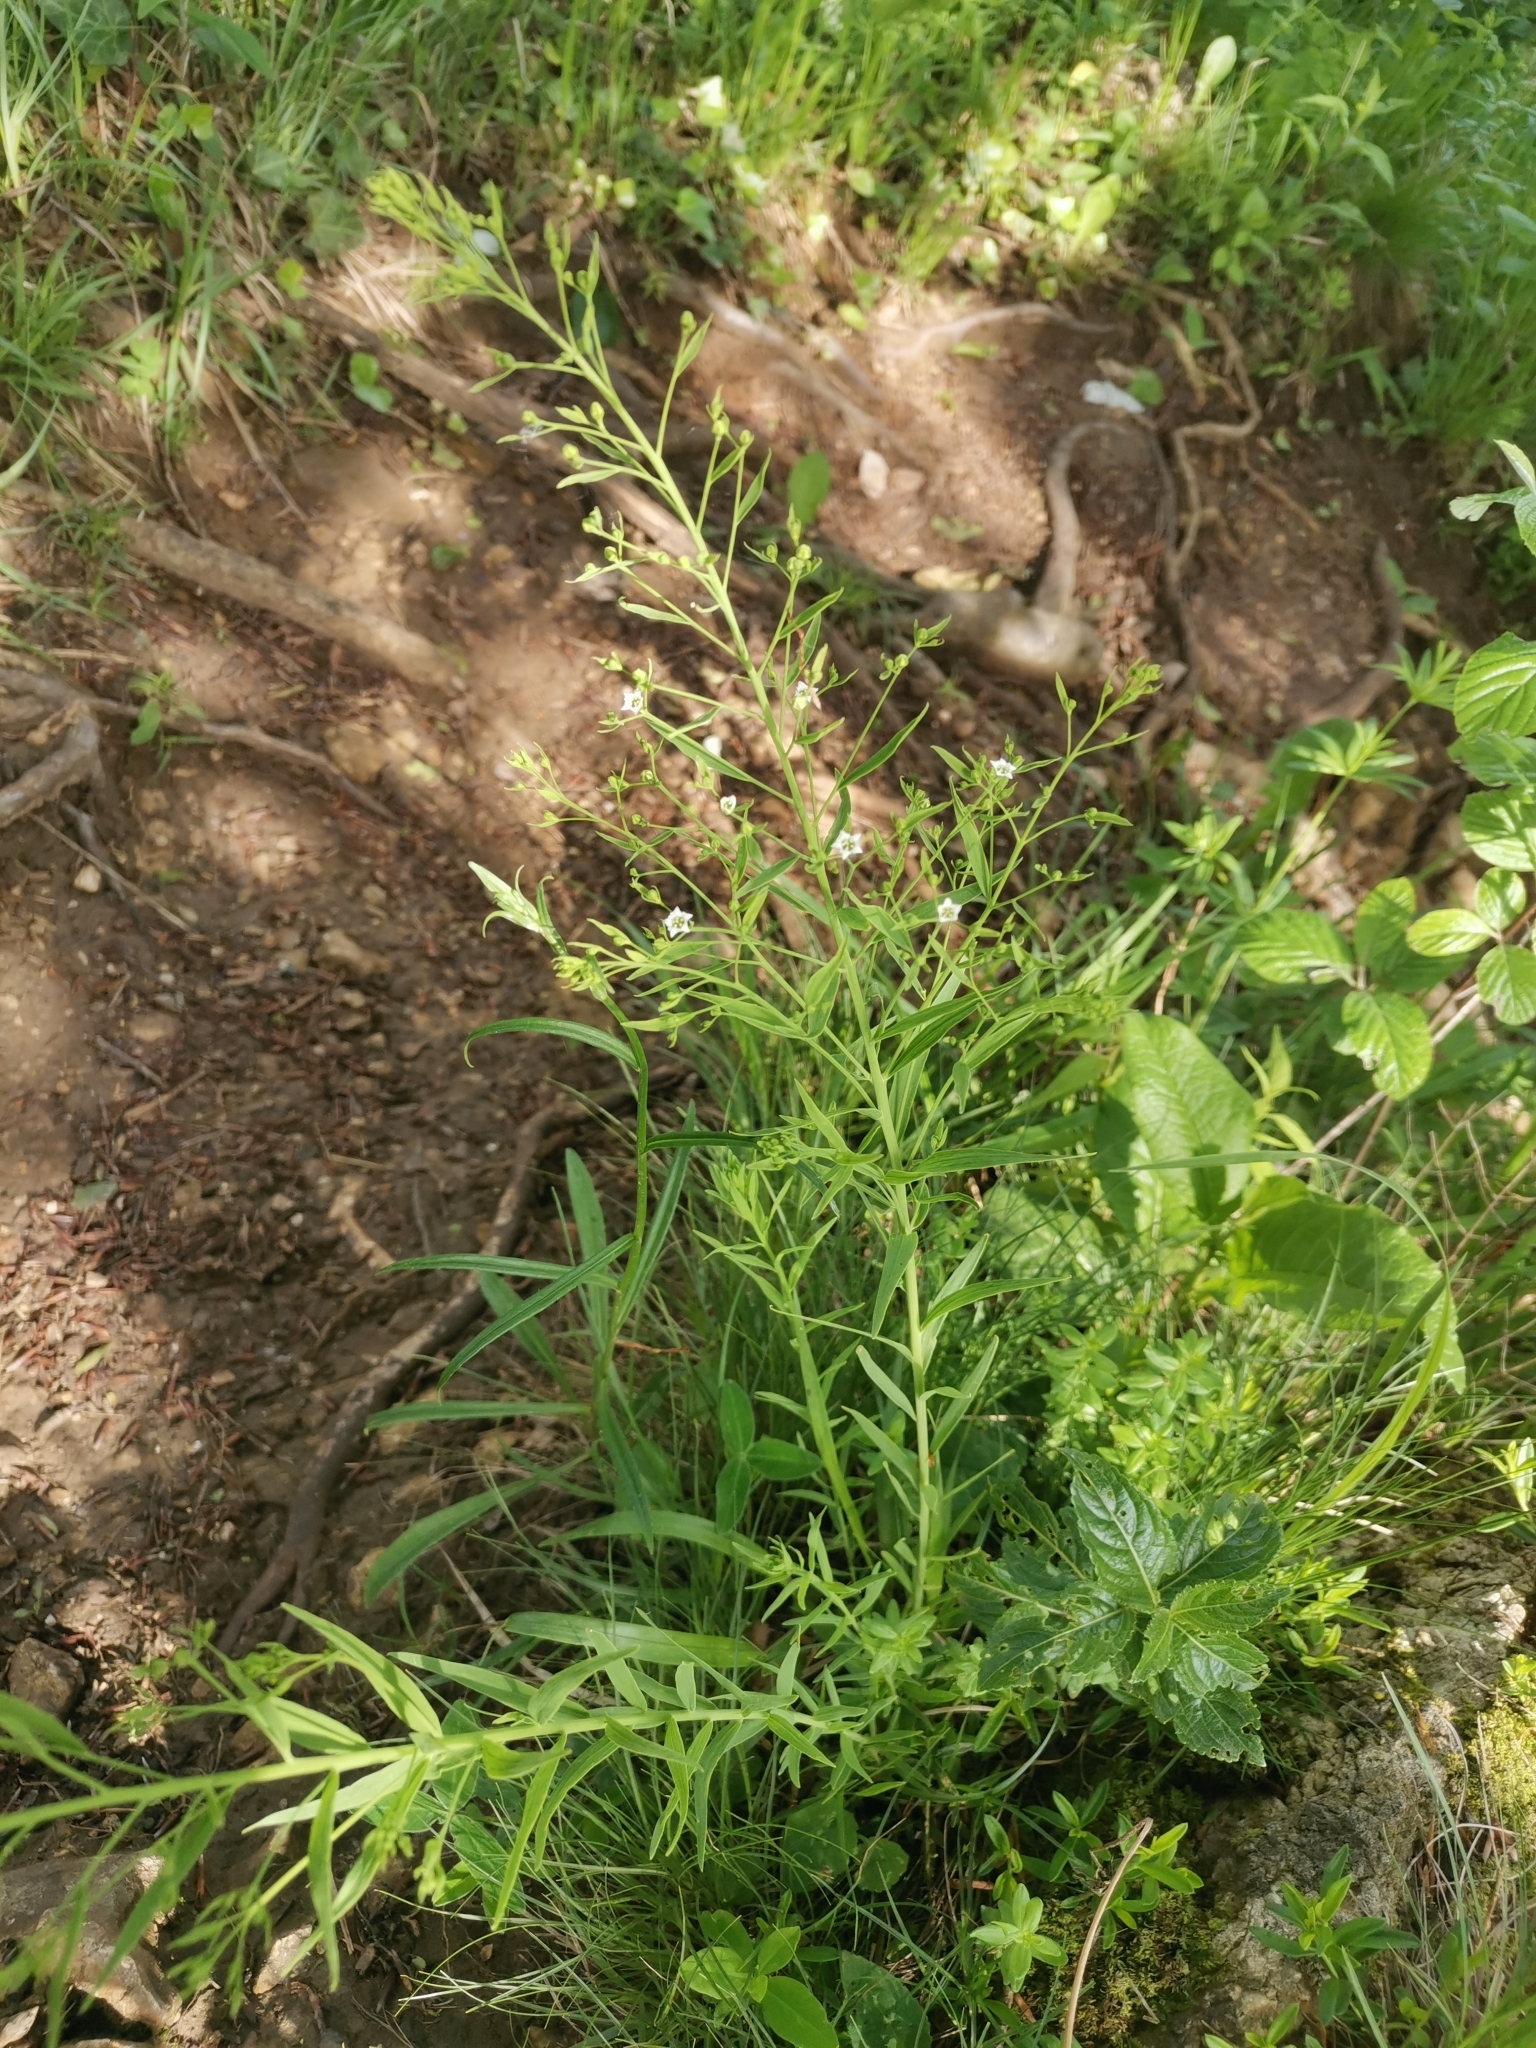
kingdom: Plantae
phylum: Tracheophyta
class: Magnoliopsida
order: Santalales
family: Thesiaceae
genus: Thesium
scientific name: Thesium bavarum
